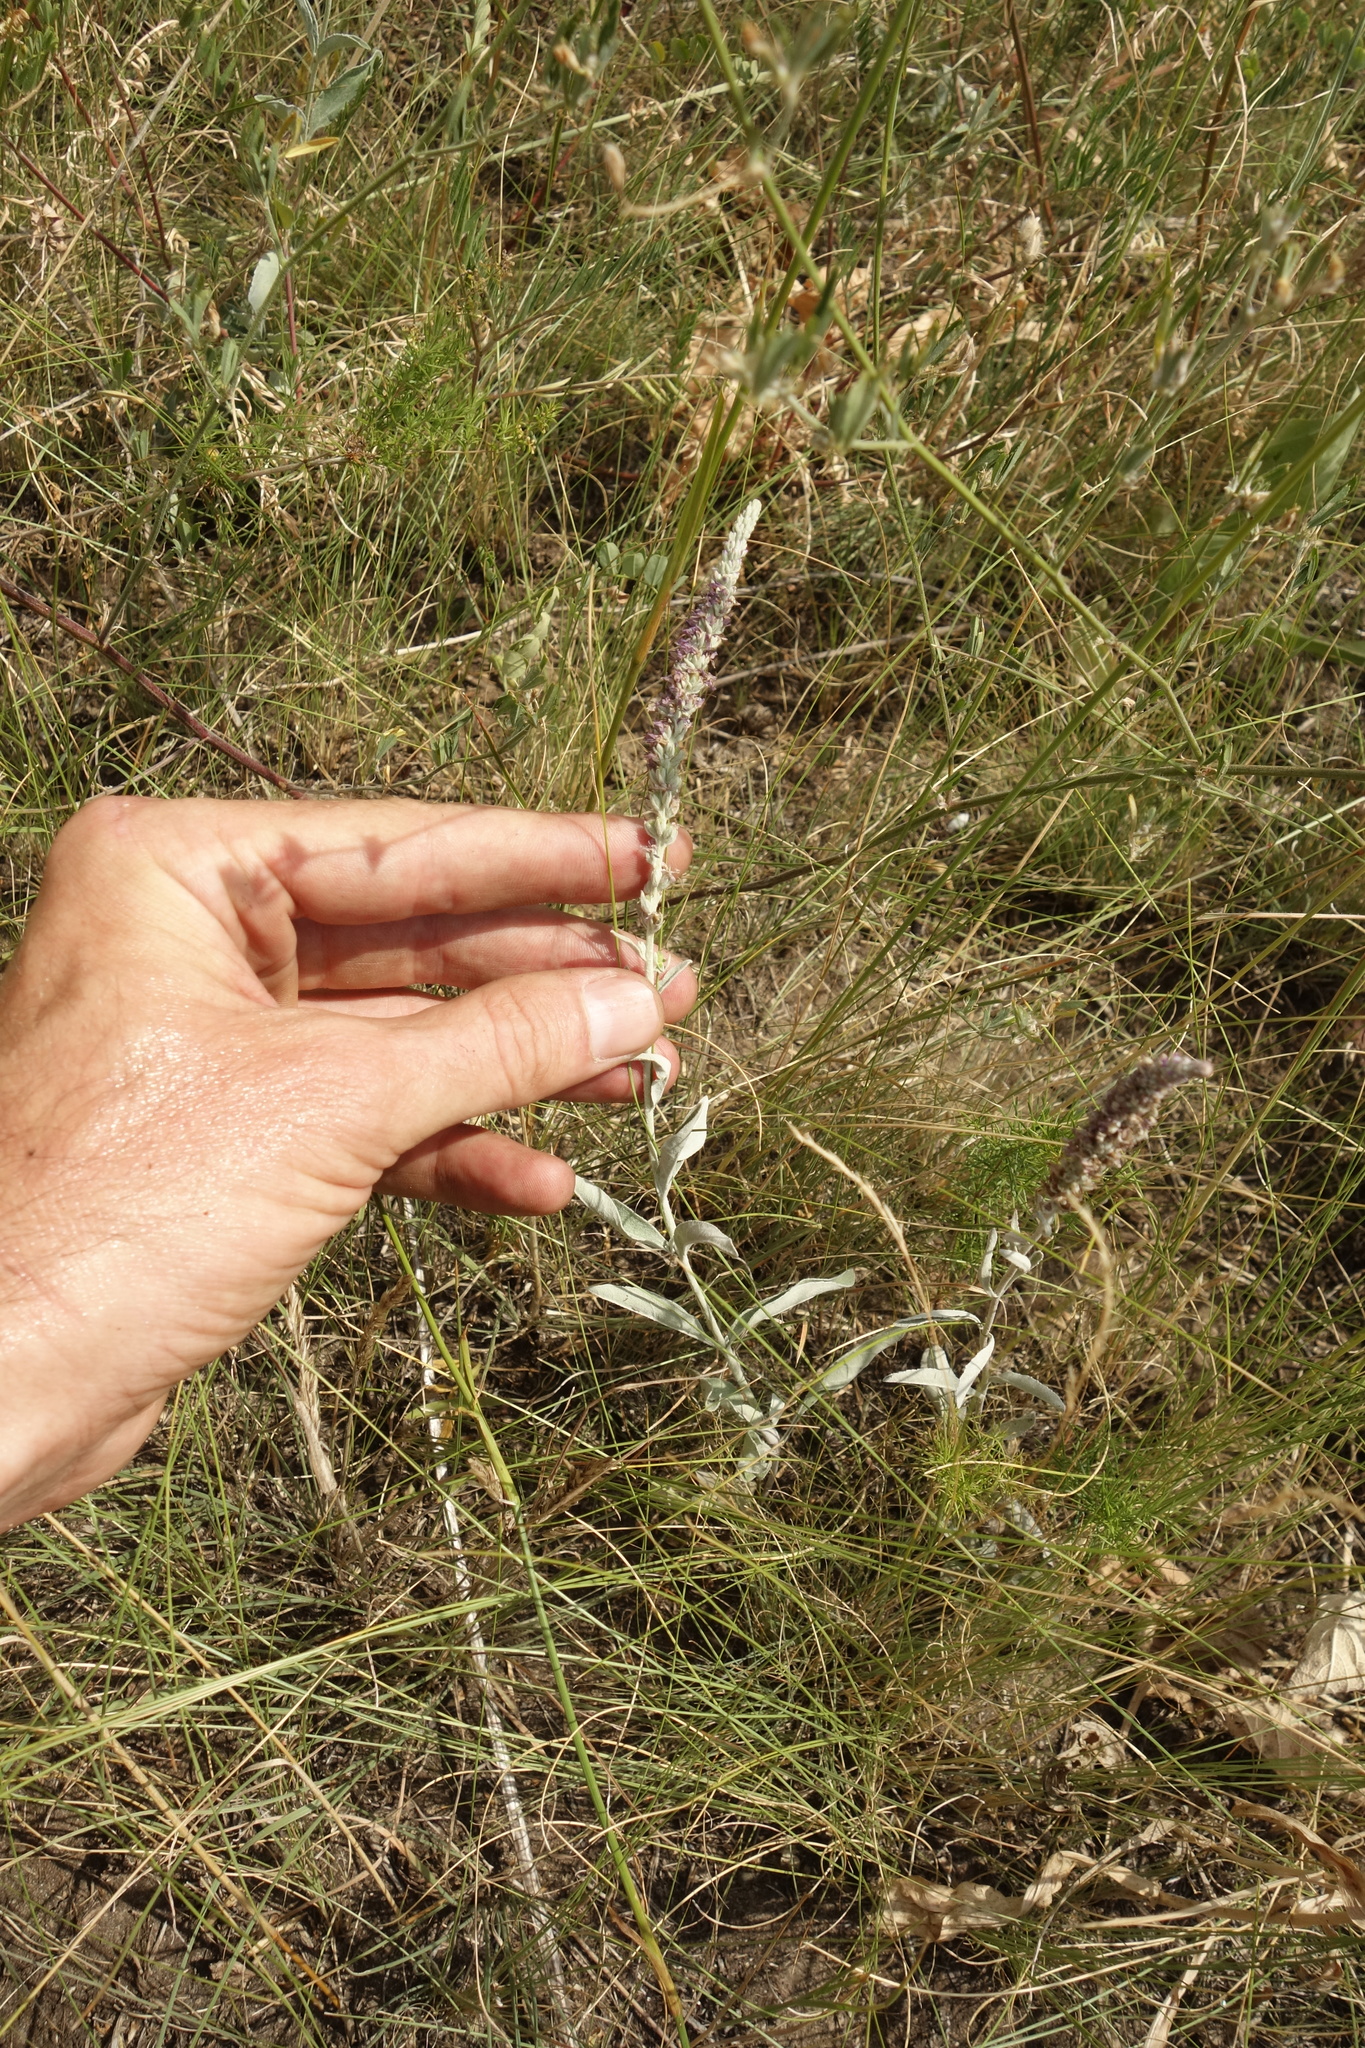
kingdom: Plantae
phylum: Tracheophyta
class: Magnoliopsida
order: Lamiales
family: Plantaginaceae
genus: Veronica
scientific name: Veronica incana
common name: Silver speedwell
